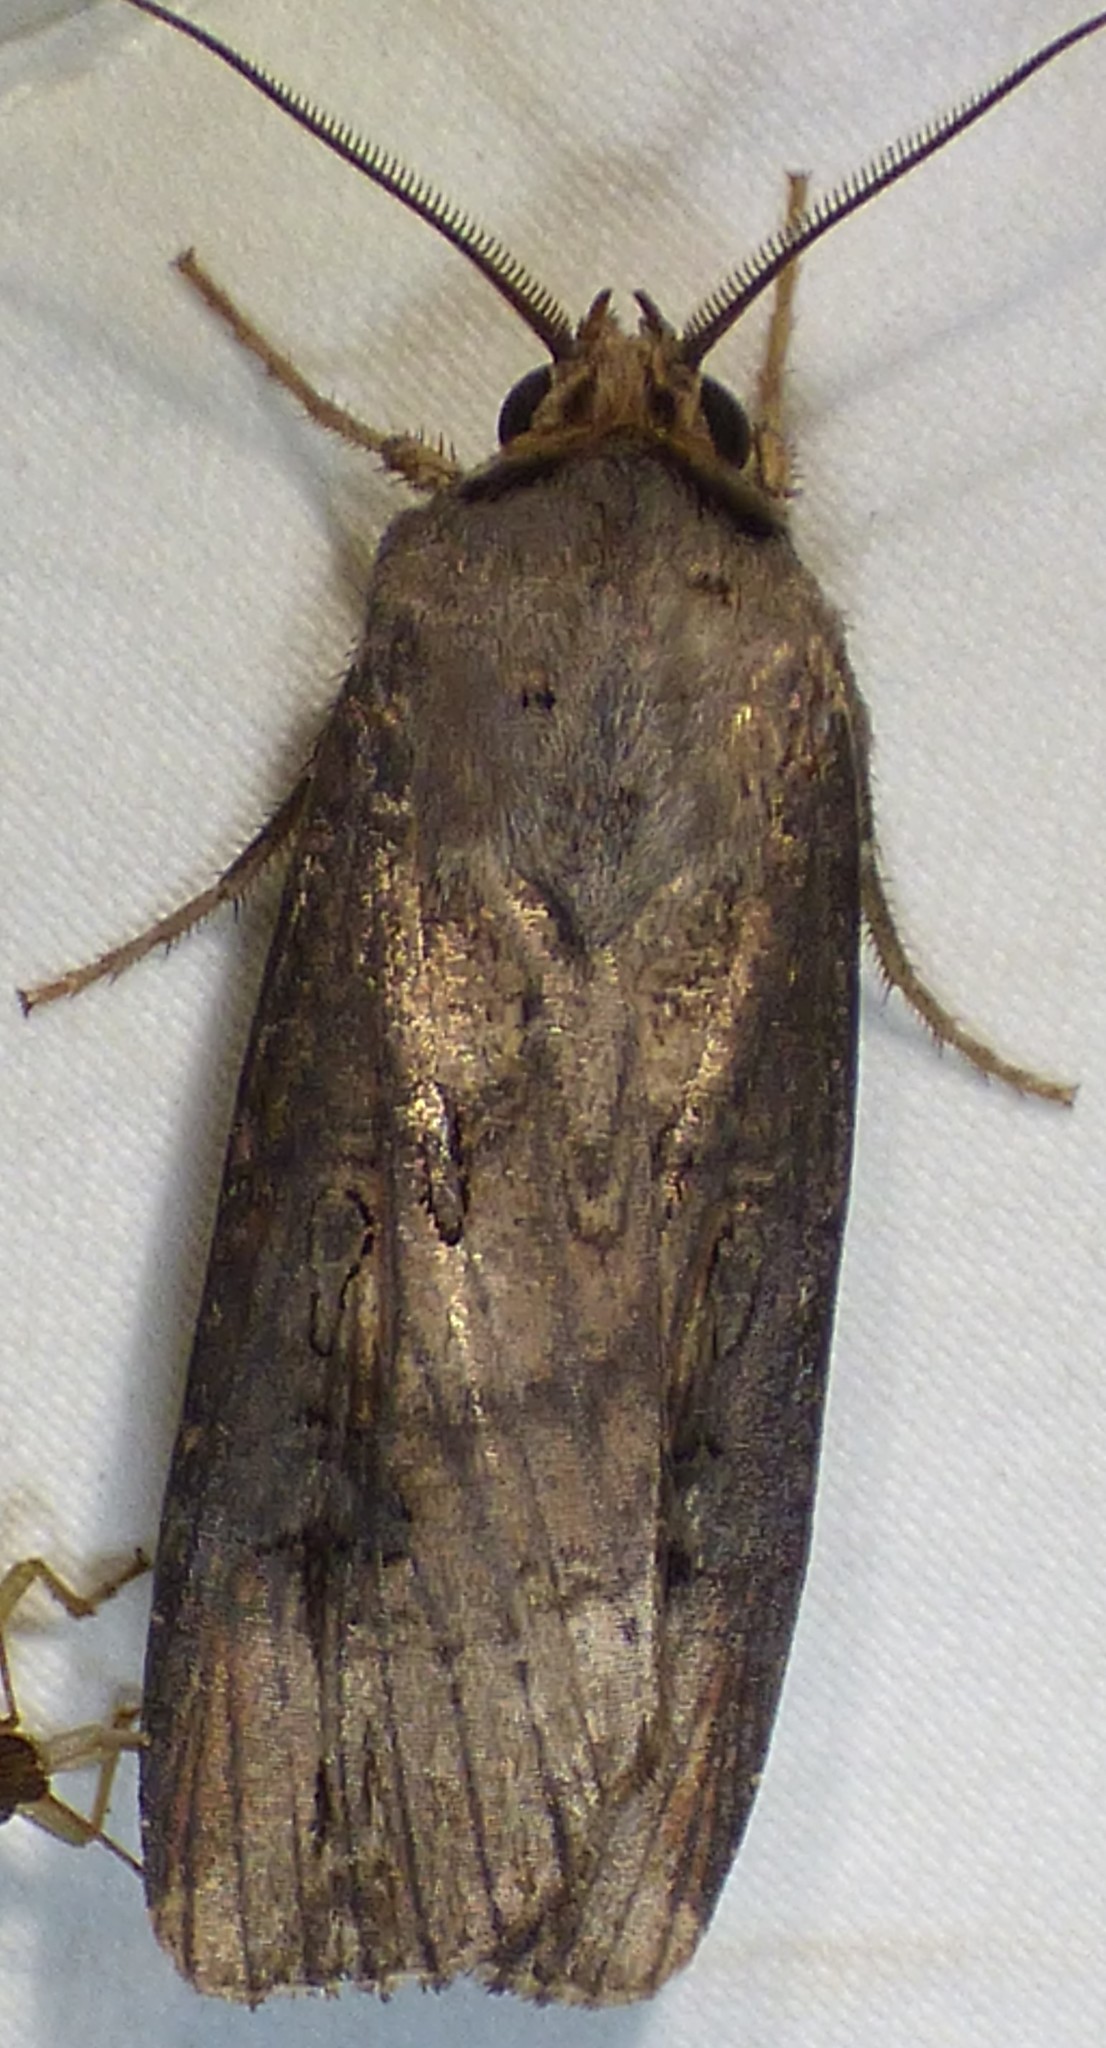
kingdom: Animalia
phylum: Arthropoda
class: Insecta
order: Lepidoptera
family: Noctuidae
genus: Agrotis
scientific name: Agrotis ipsilon
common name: Dark sword-grass
